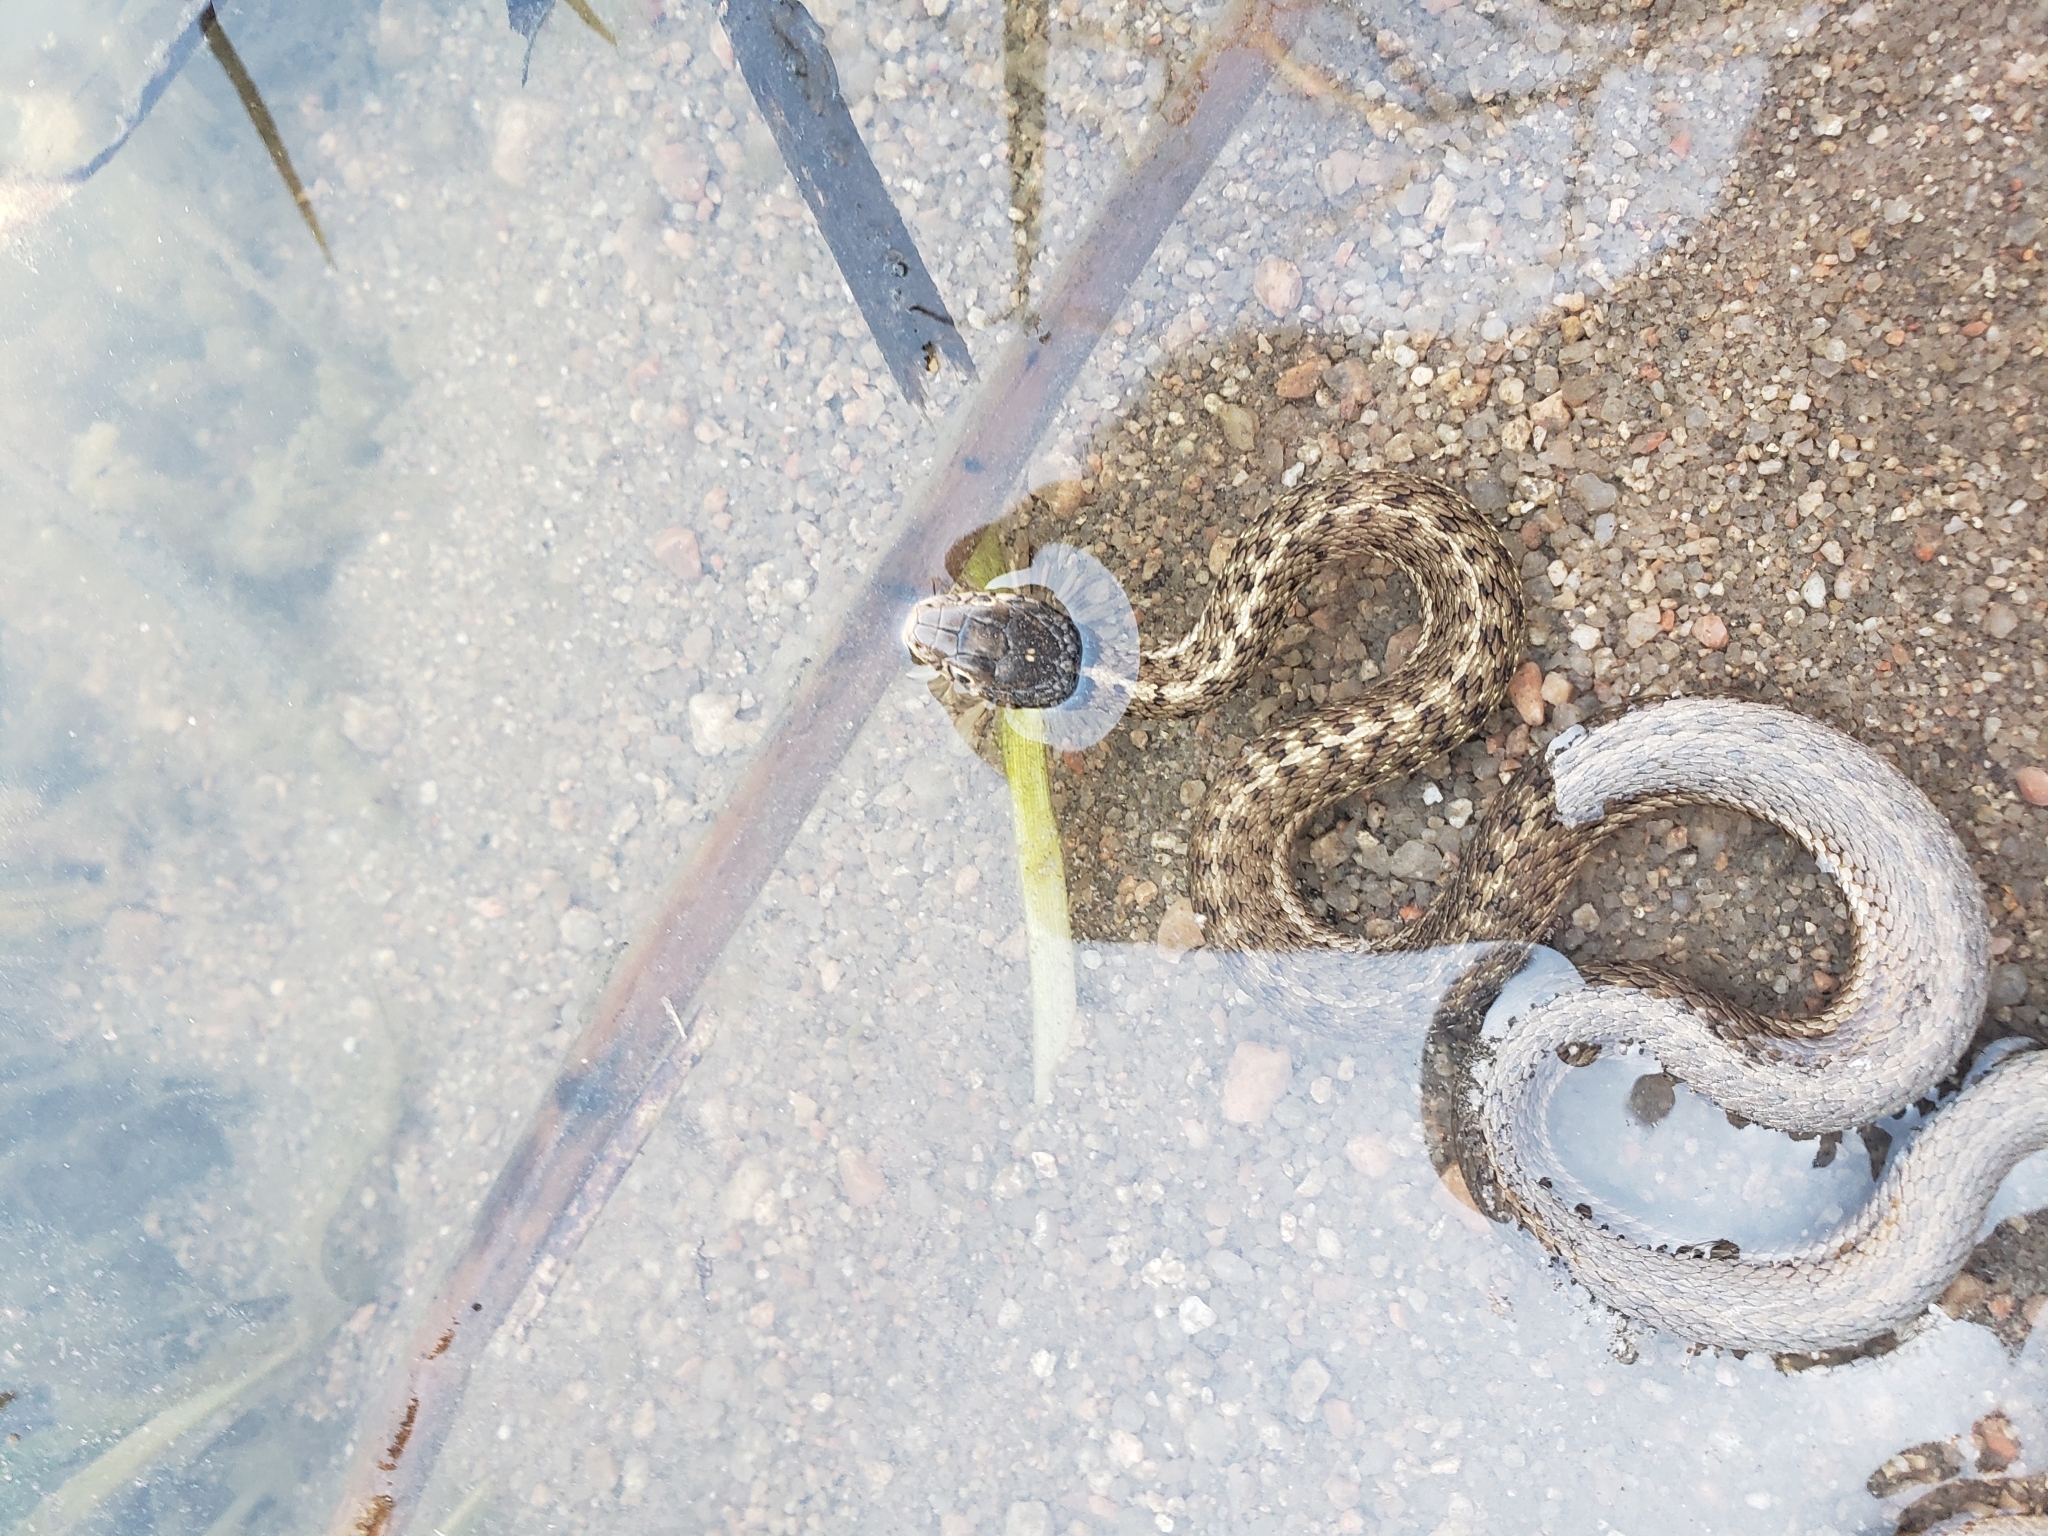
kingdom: Animalia
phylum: Chordata
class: Squamata
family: Colubridae
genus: Thamnophis
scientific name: Thamnophis elegans
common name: Western terrestrial garter snake
